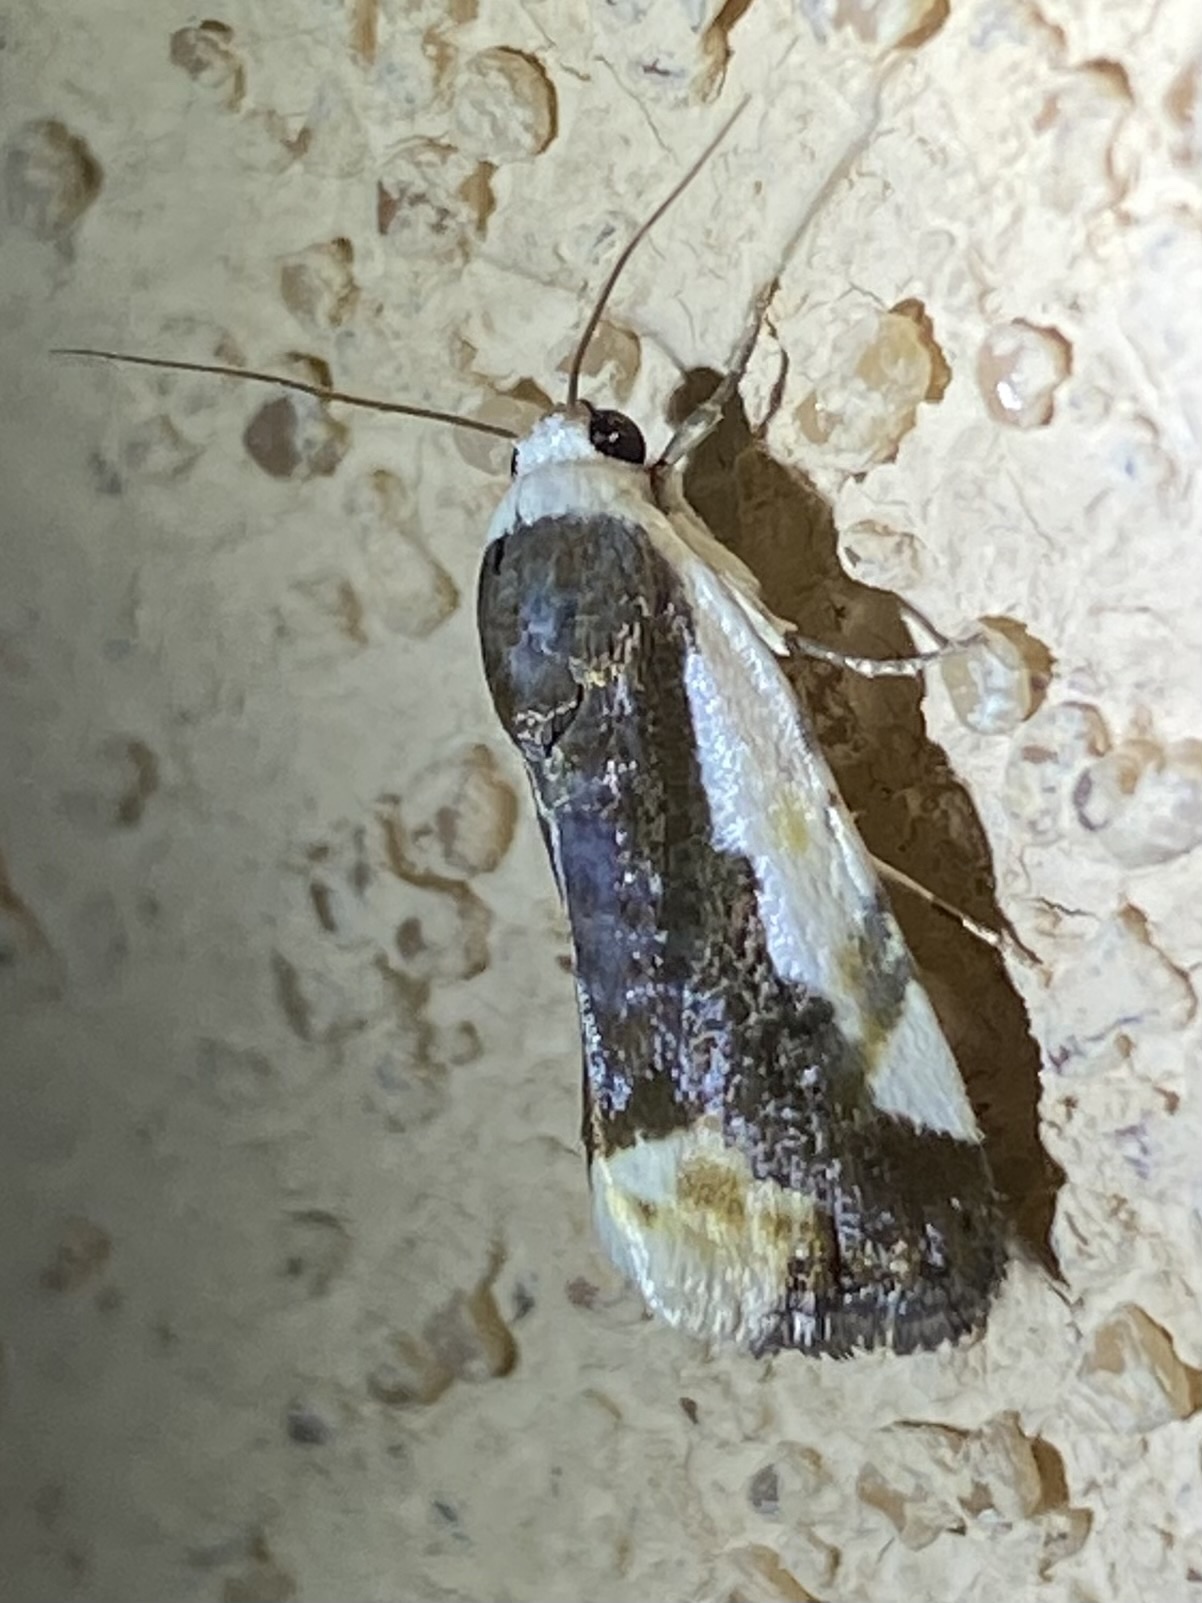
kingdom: Animalia
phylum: Arthropoda
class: Insecta
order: Lepidoptera
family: Noctuidae
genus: Acontia
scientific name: Acontia Tarache expolita
